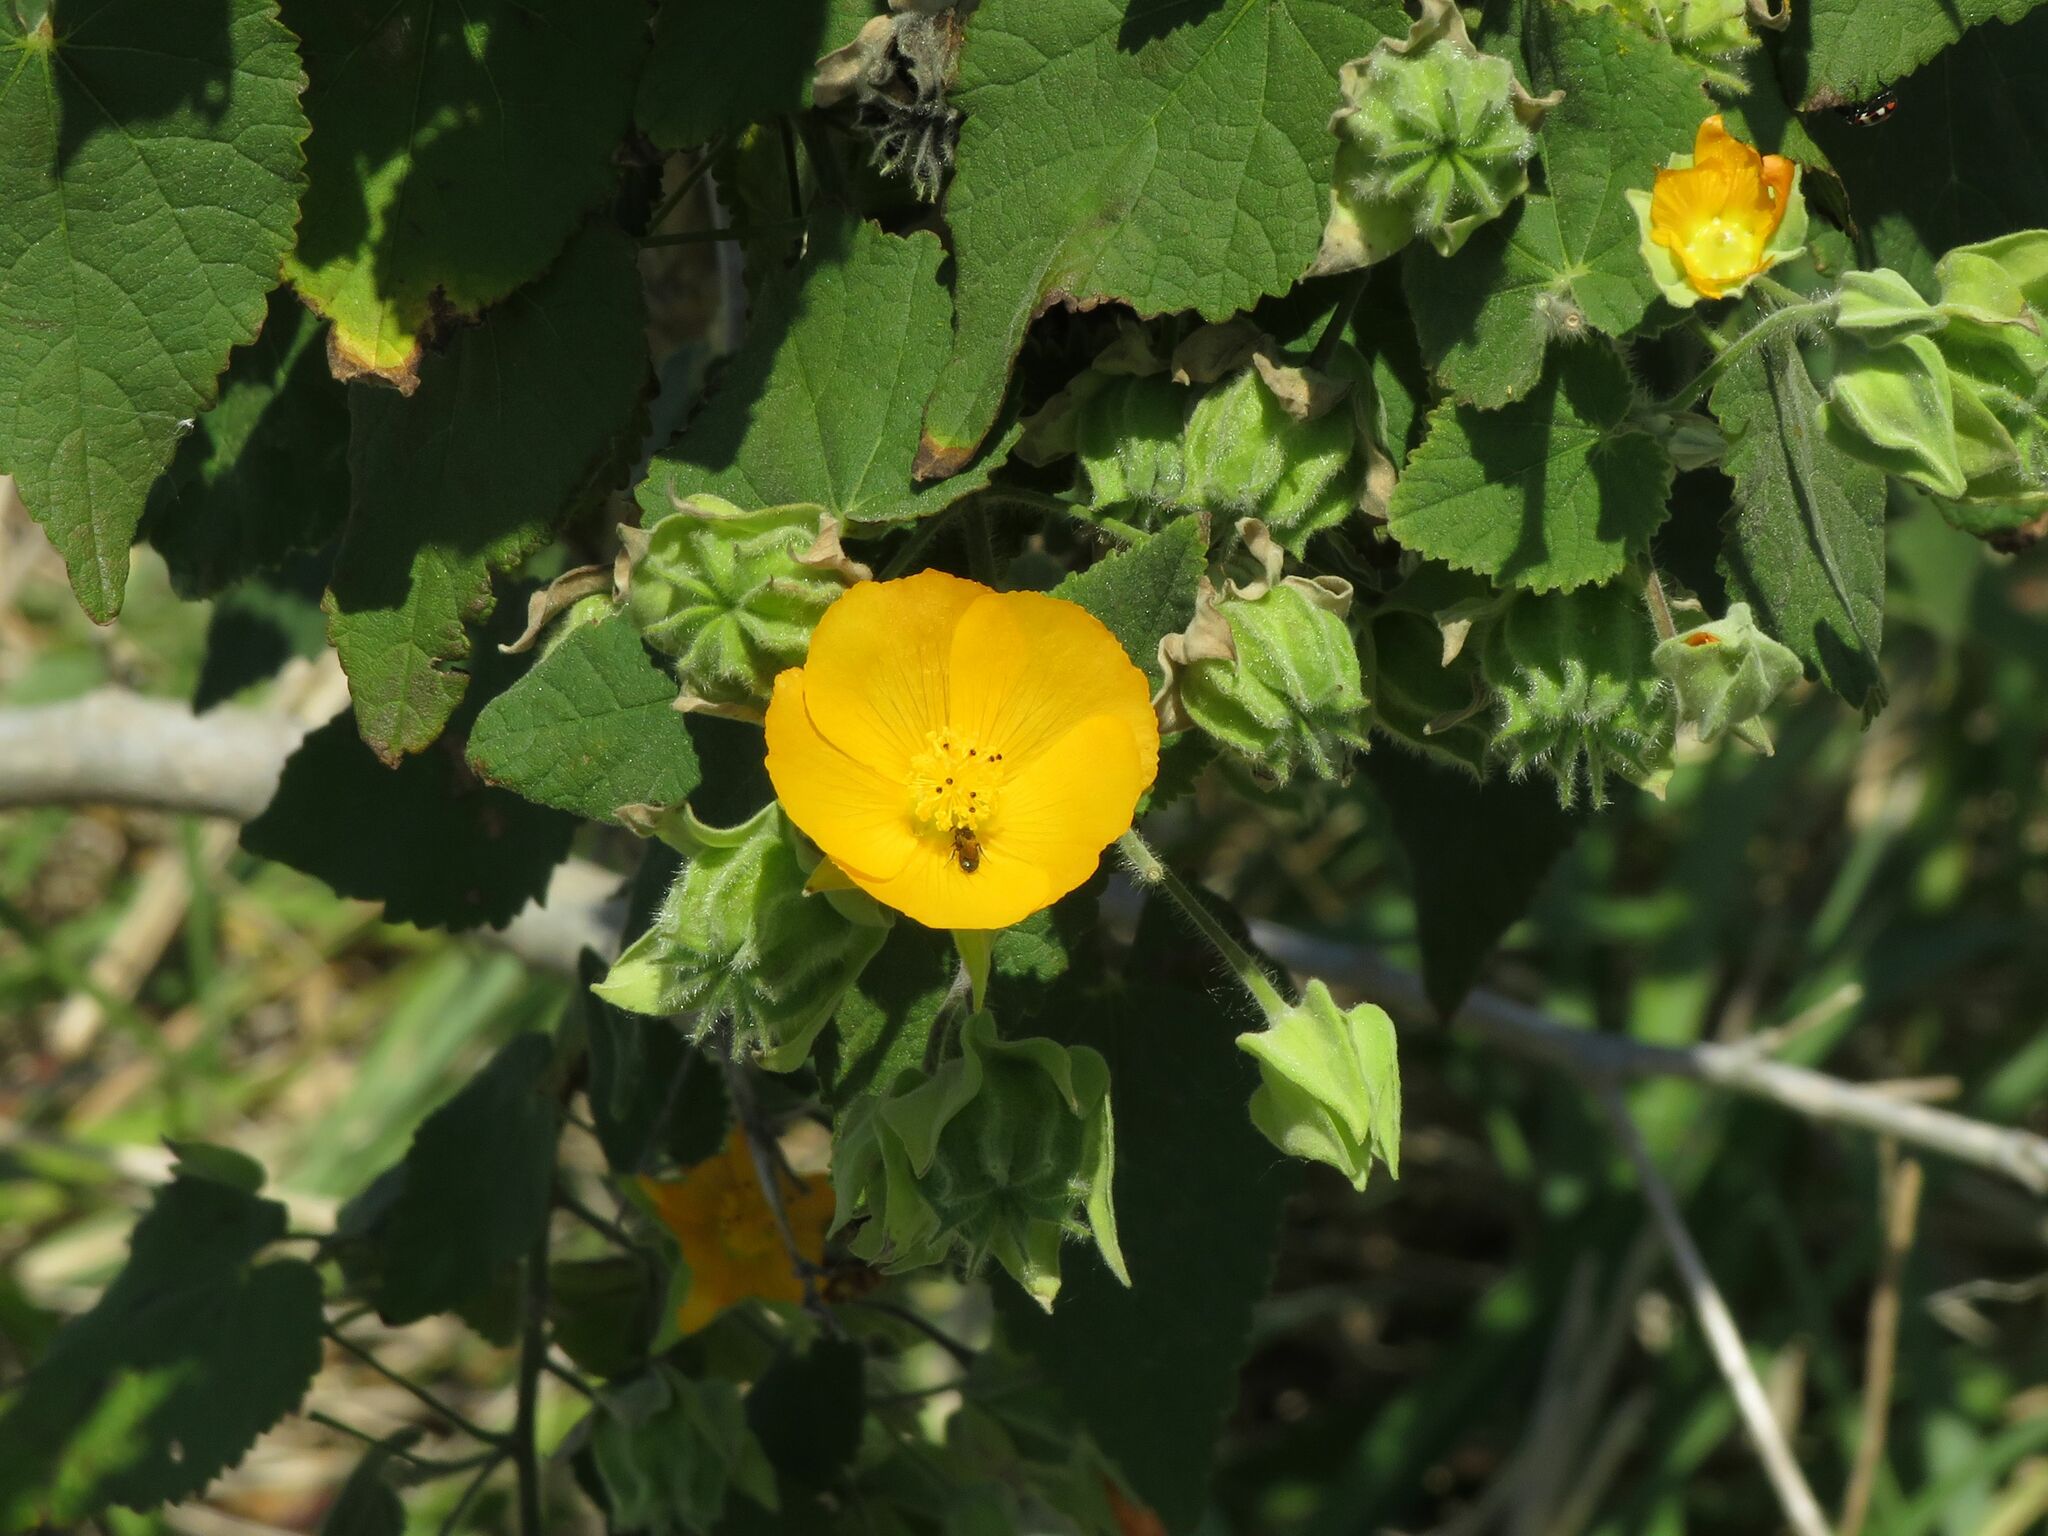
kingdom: Plantae
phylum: Tracheophyta
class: Magnoliopsida
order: Malvales
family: Malvaceae
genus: Abutilon
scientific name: Abutilon grandifolium
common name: Hairy abutilon
